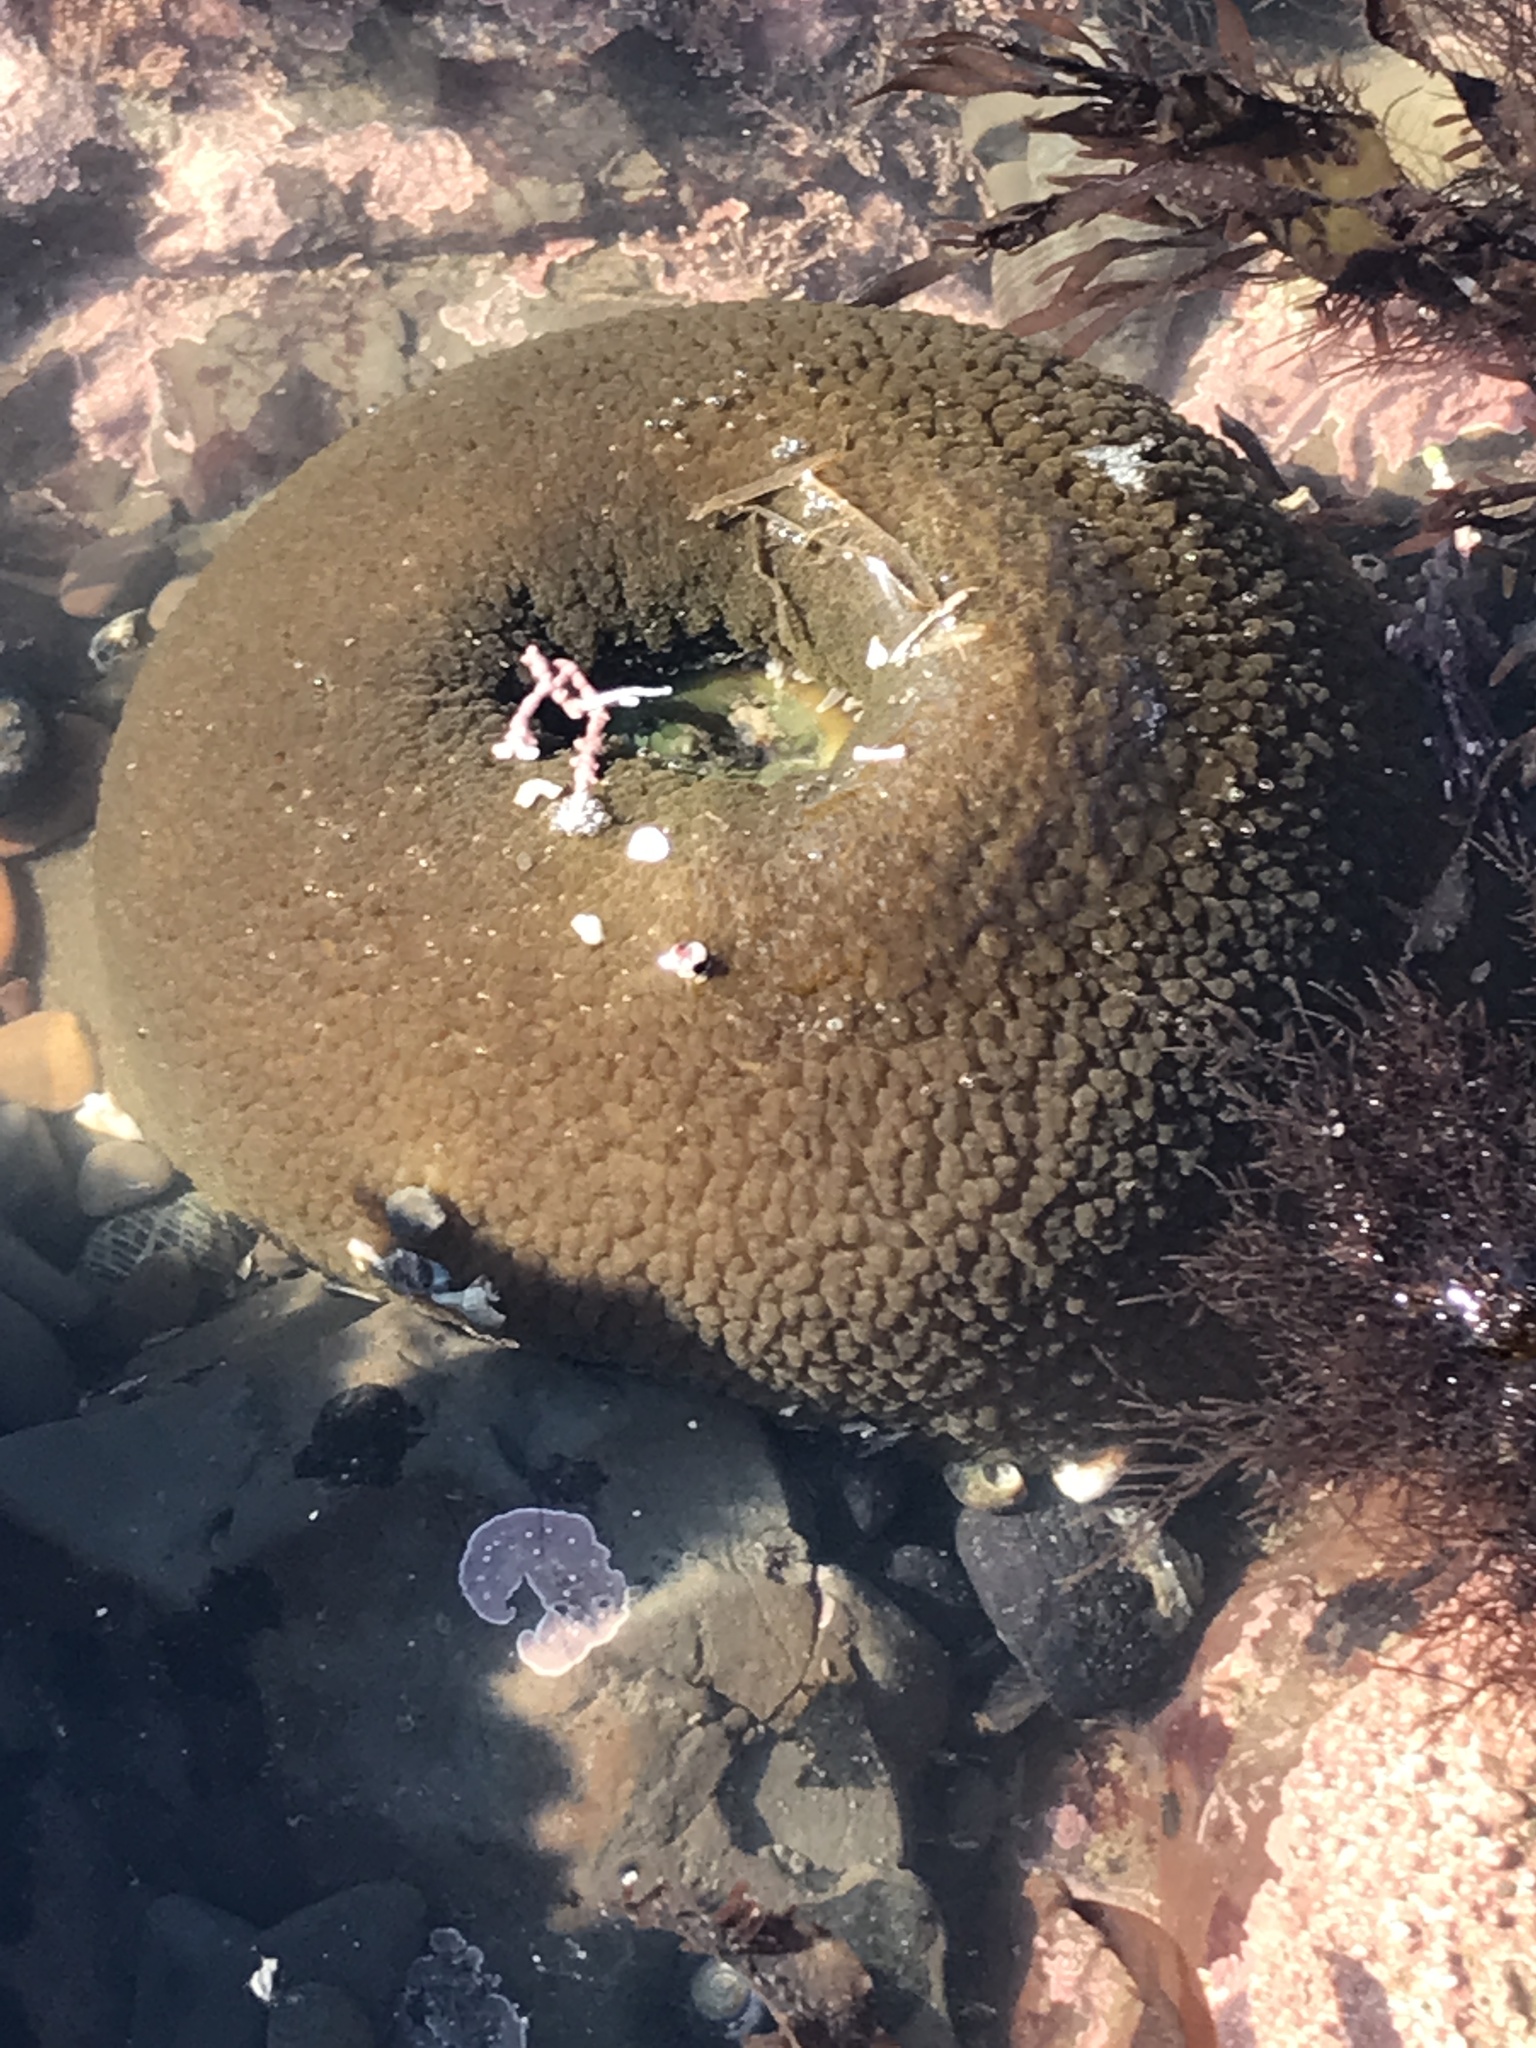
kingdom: Animalia
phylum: Cnidaria
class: Anthozoa
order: Actiniaria
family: Actiniidae
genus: Anthopleura
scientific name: Anthopleura xanthogrammica
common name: Giant green anemone
